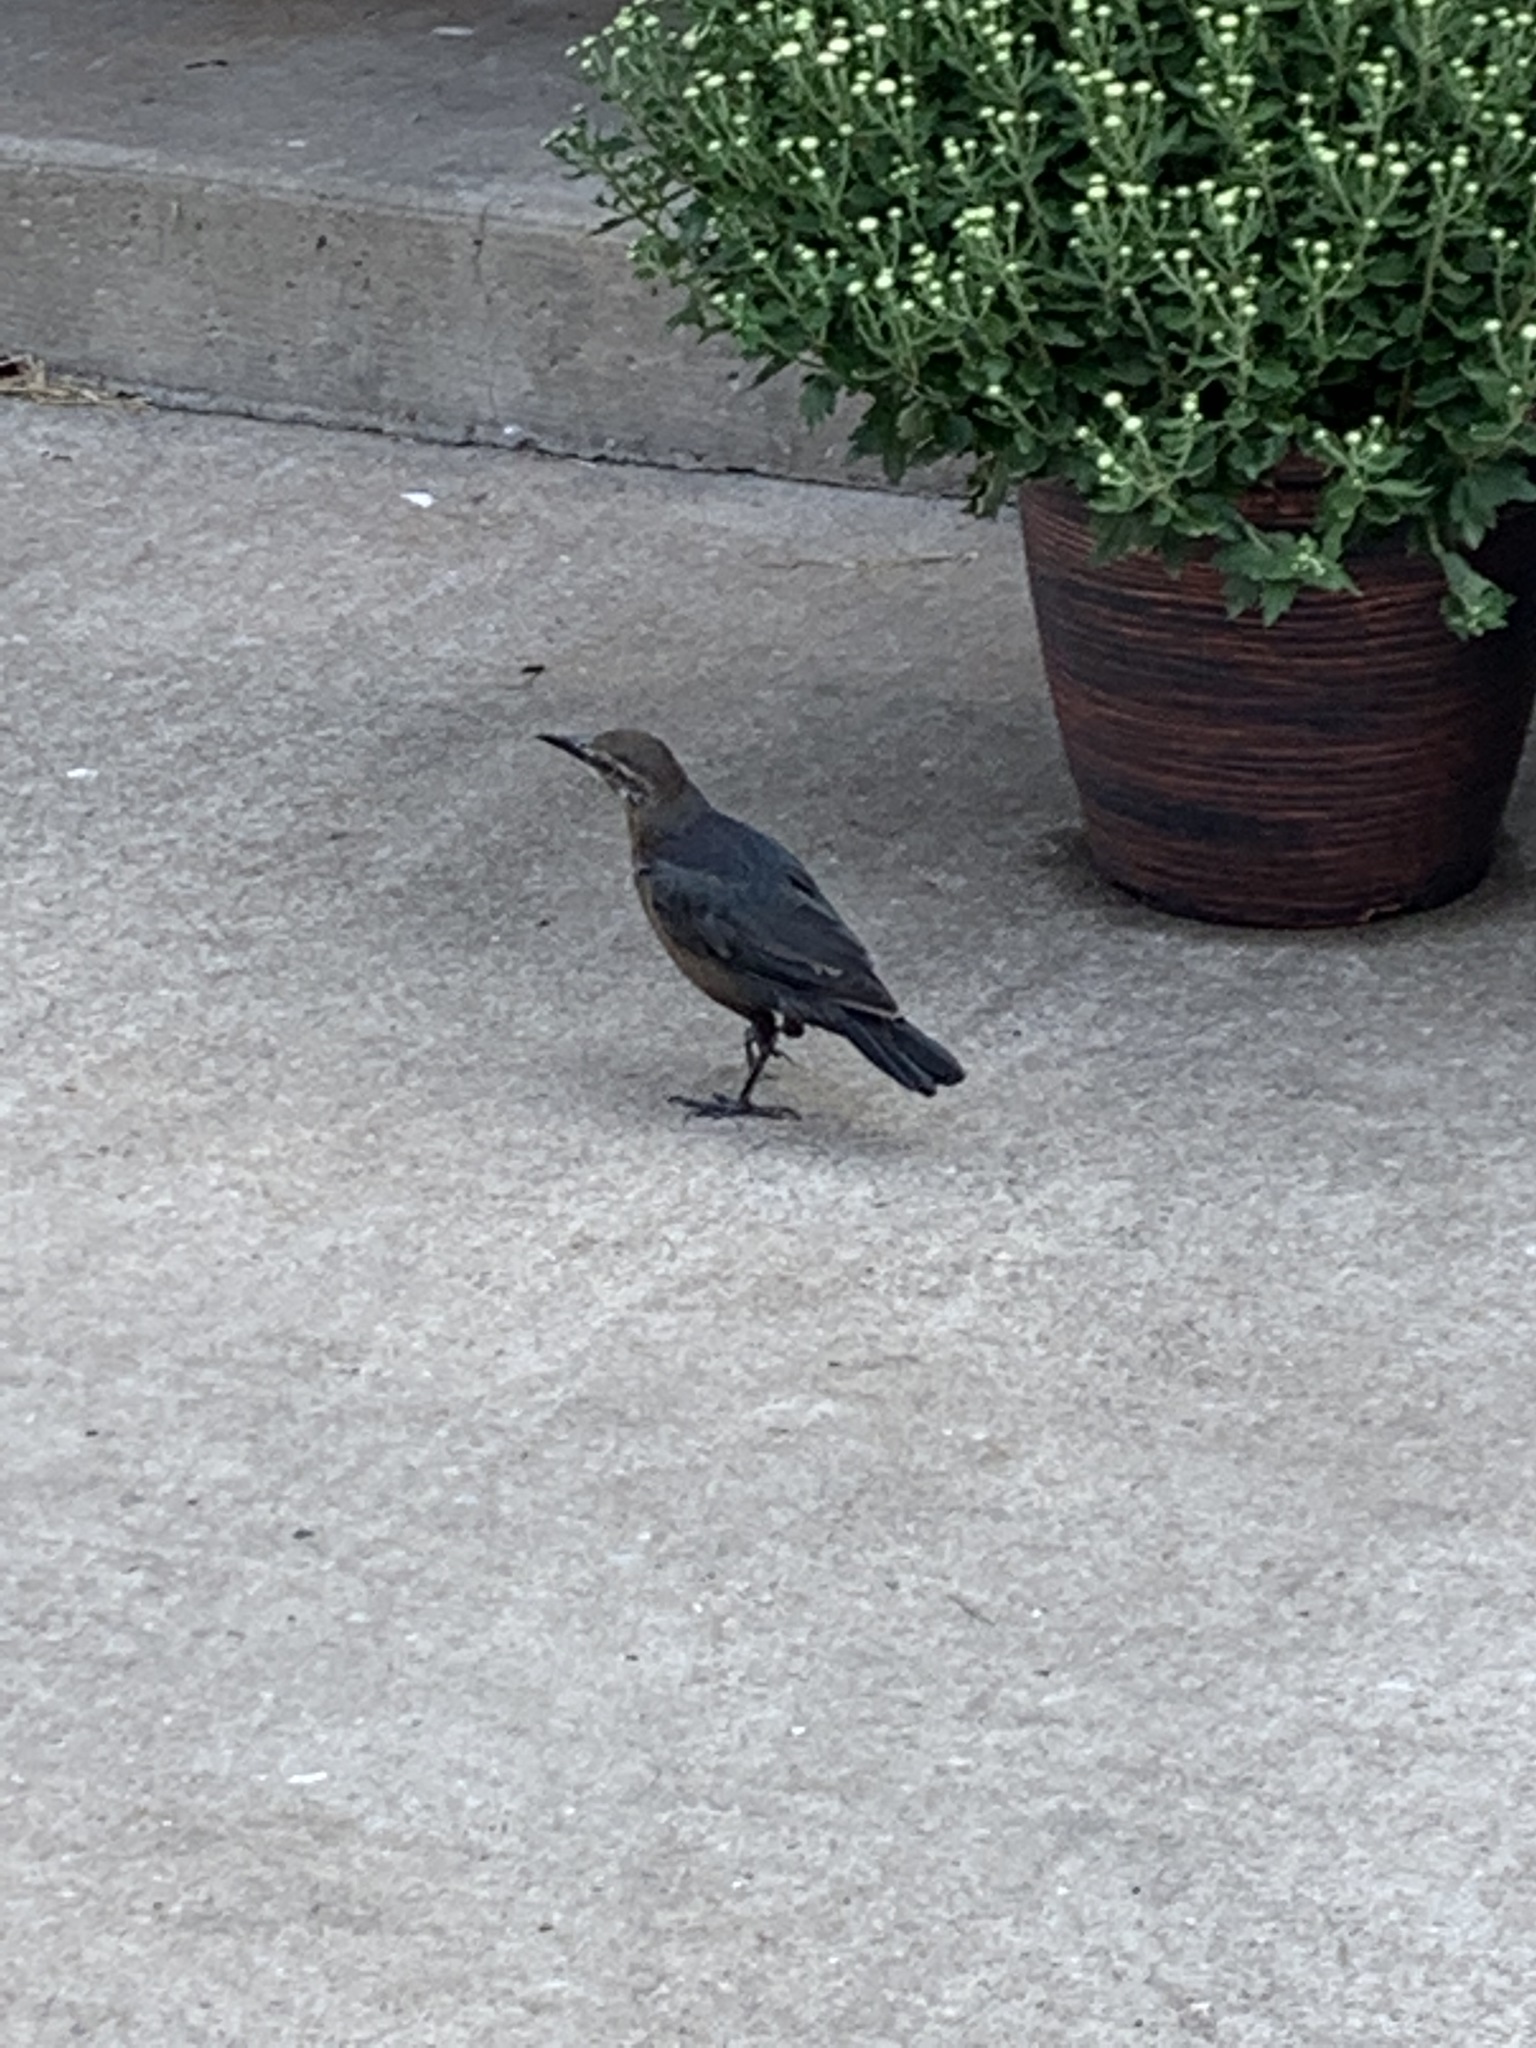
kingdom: Animalia
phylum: Chordata
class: Aves
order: Passeriformes
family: Icteridae
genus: Quiscalus
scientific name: Quiscalus mexicanus
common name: Great-tailed grackle
